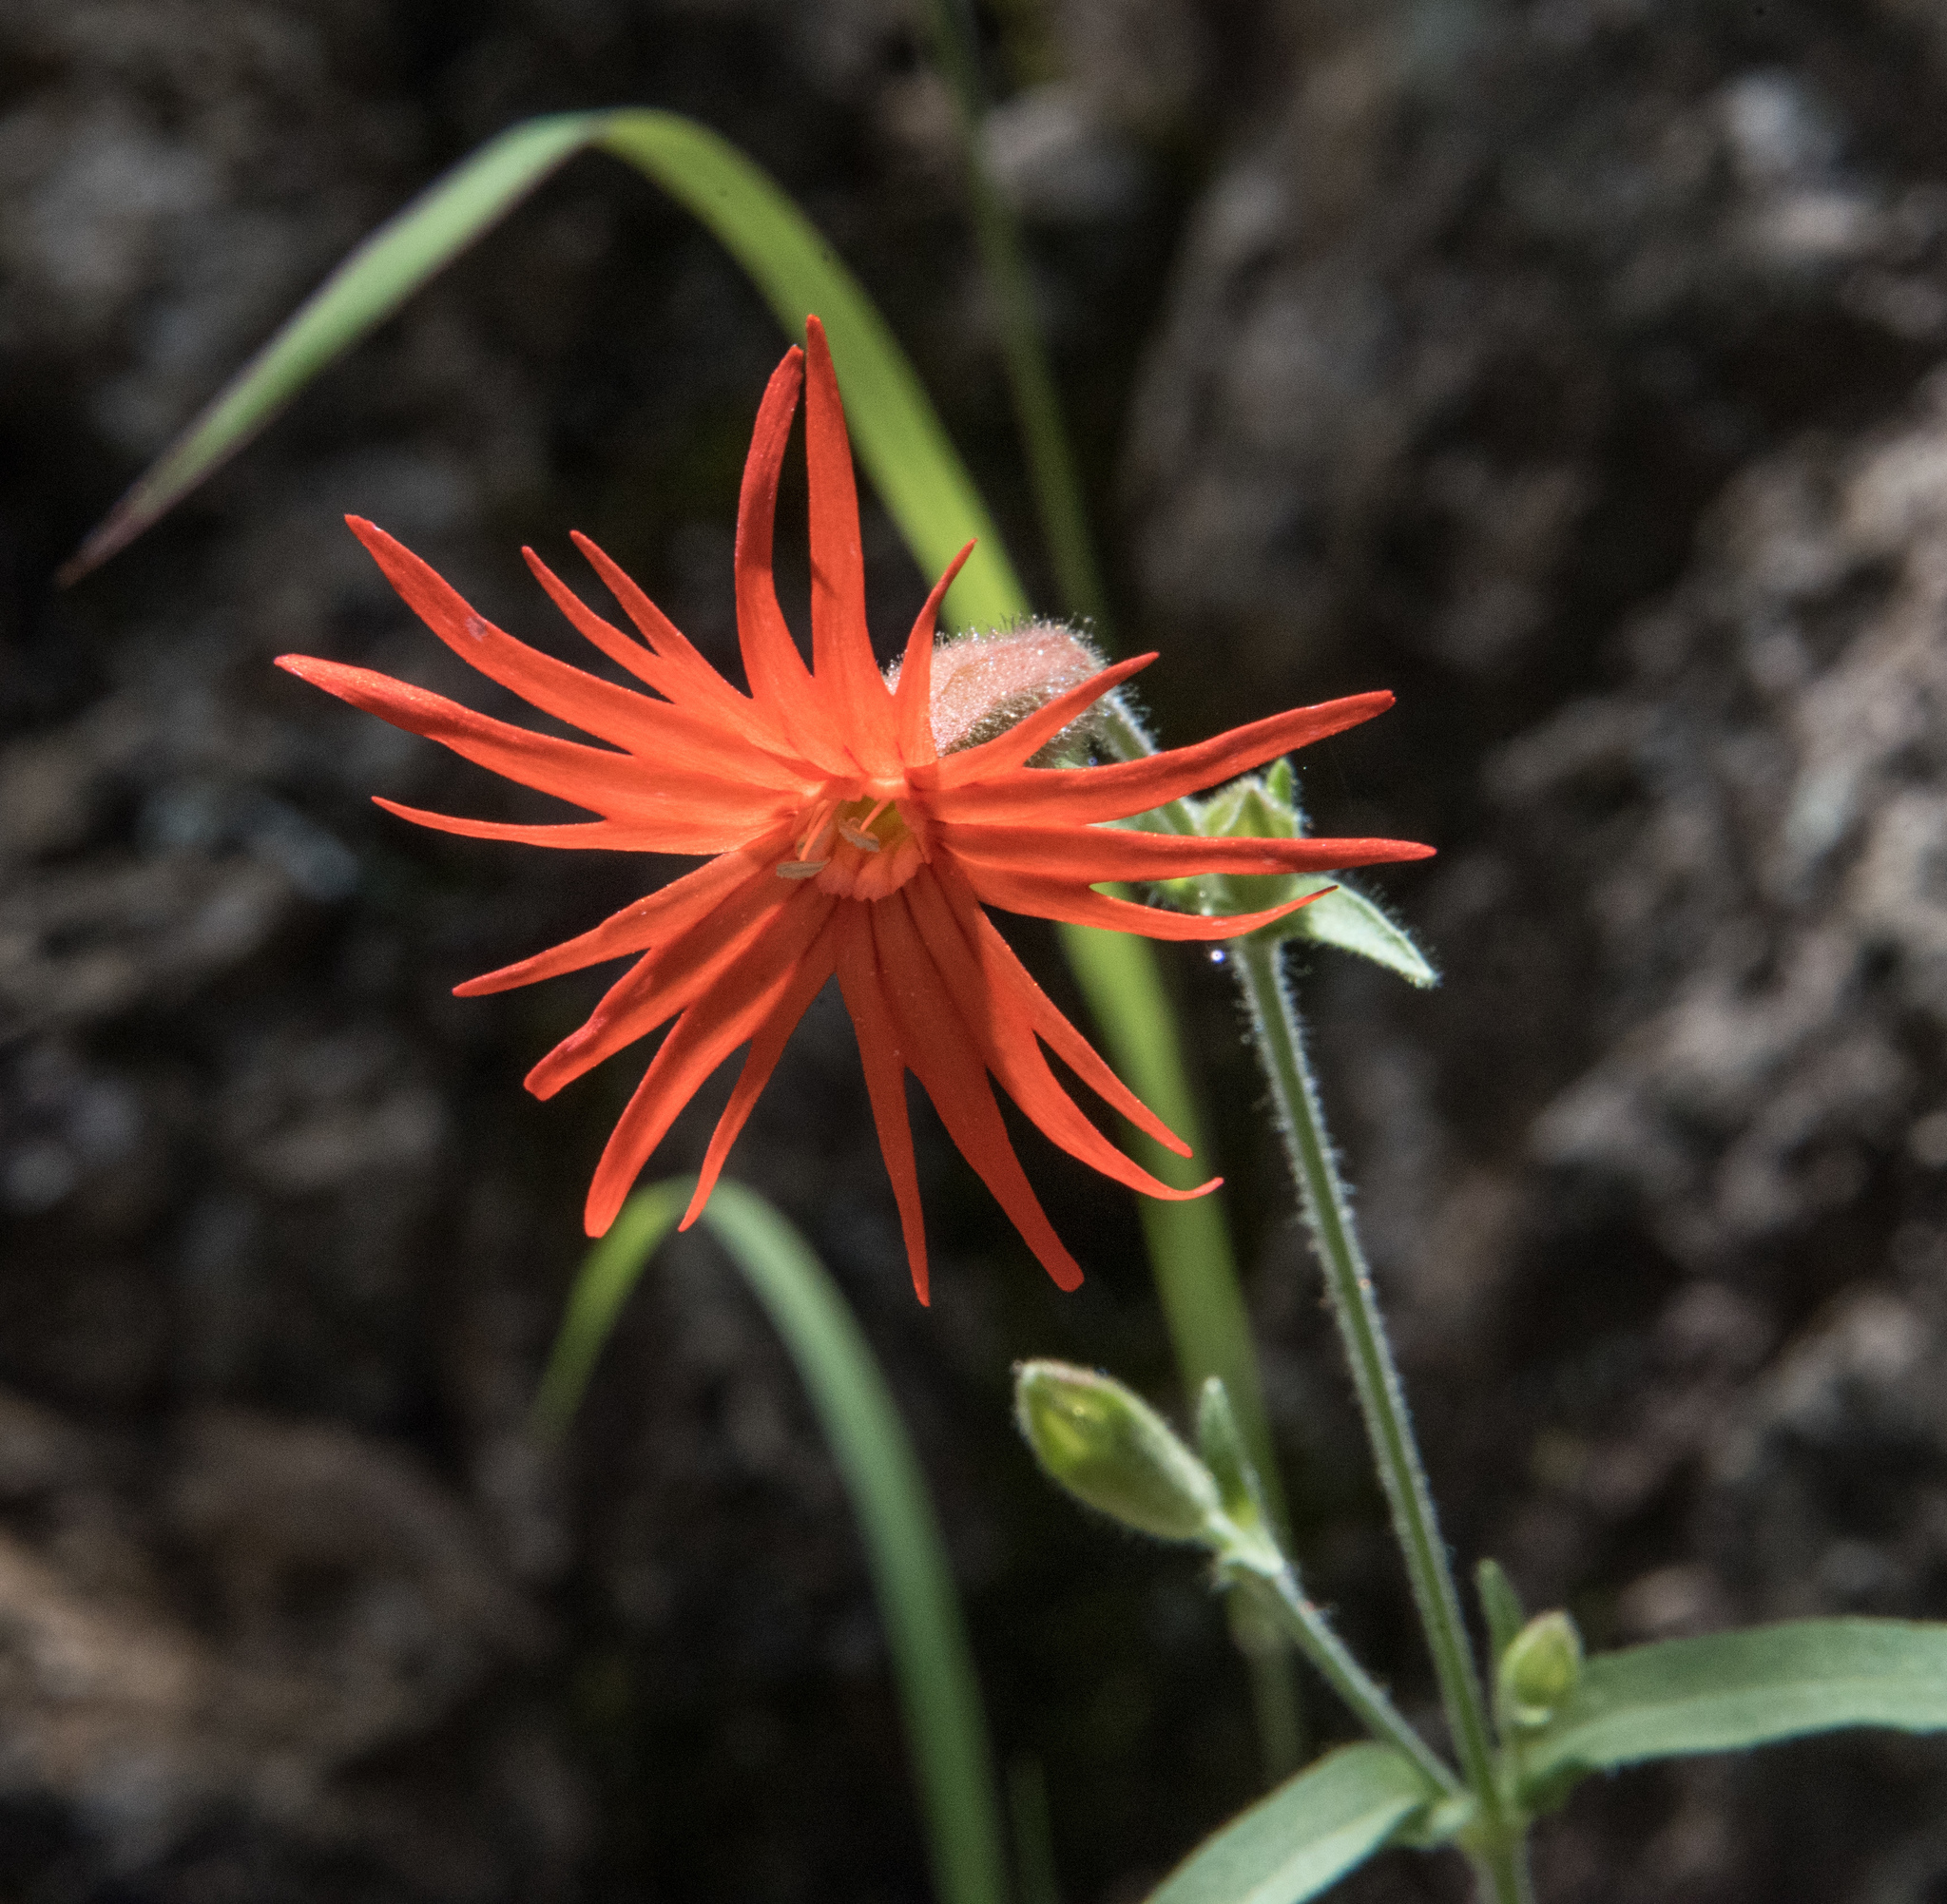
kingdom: Plantae
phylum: Tracheophyta
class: Magnoliopsida
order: Caryophyllales
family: Caryophyllaceae
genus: Silene
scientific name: Silene laciniata
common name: Indian-pink
